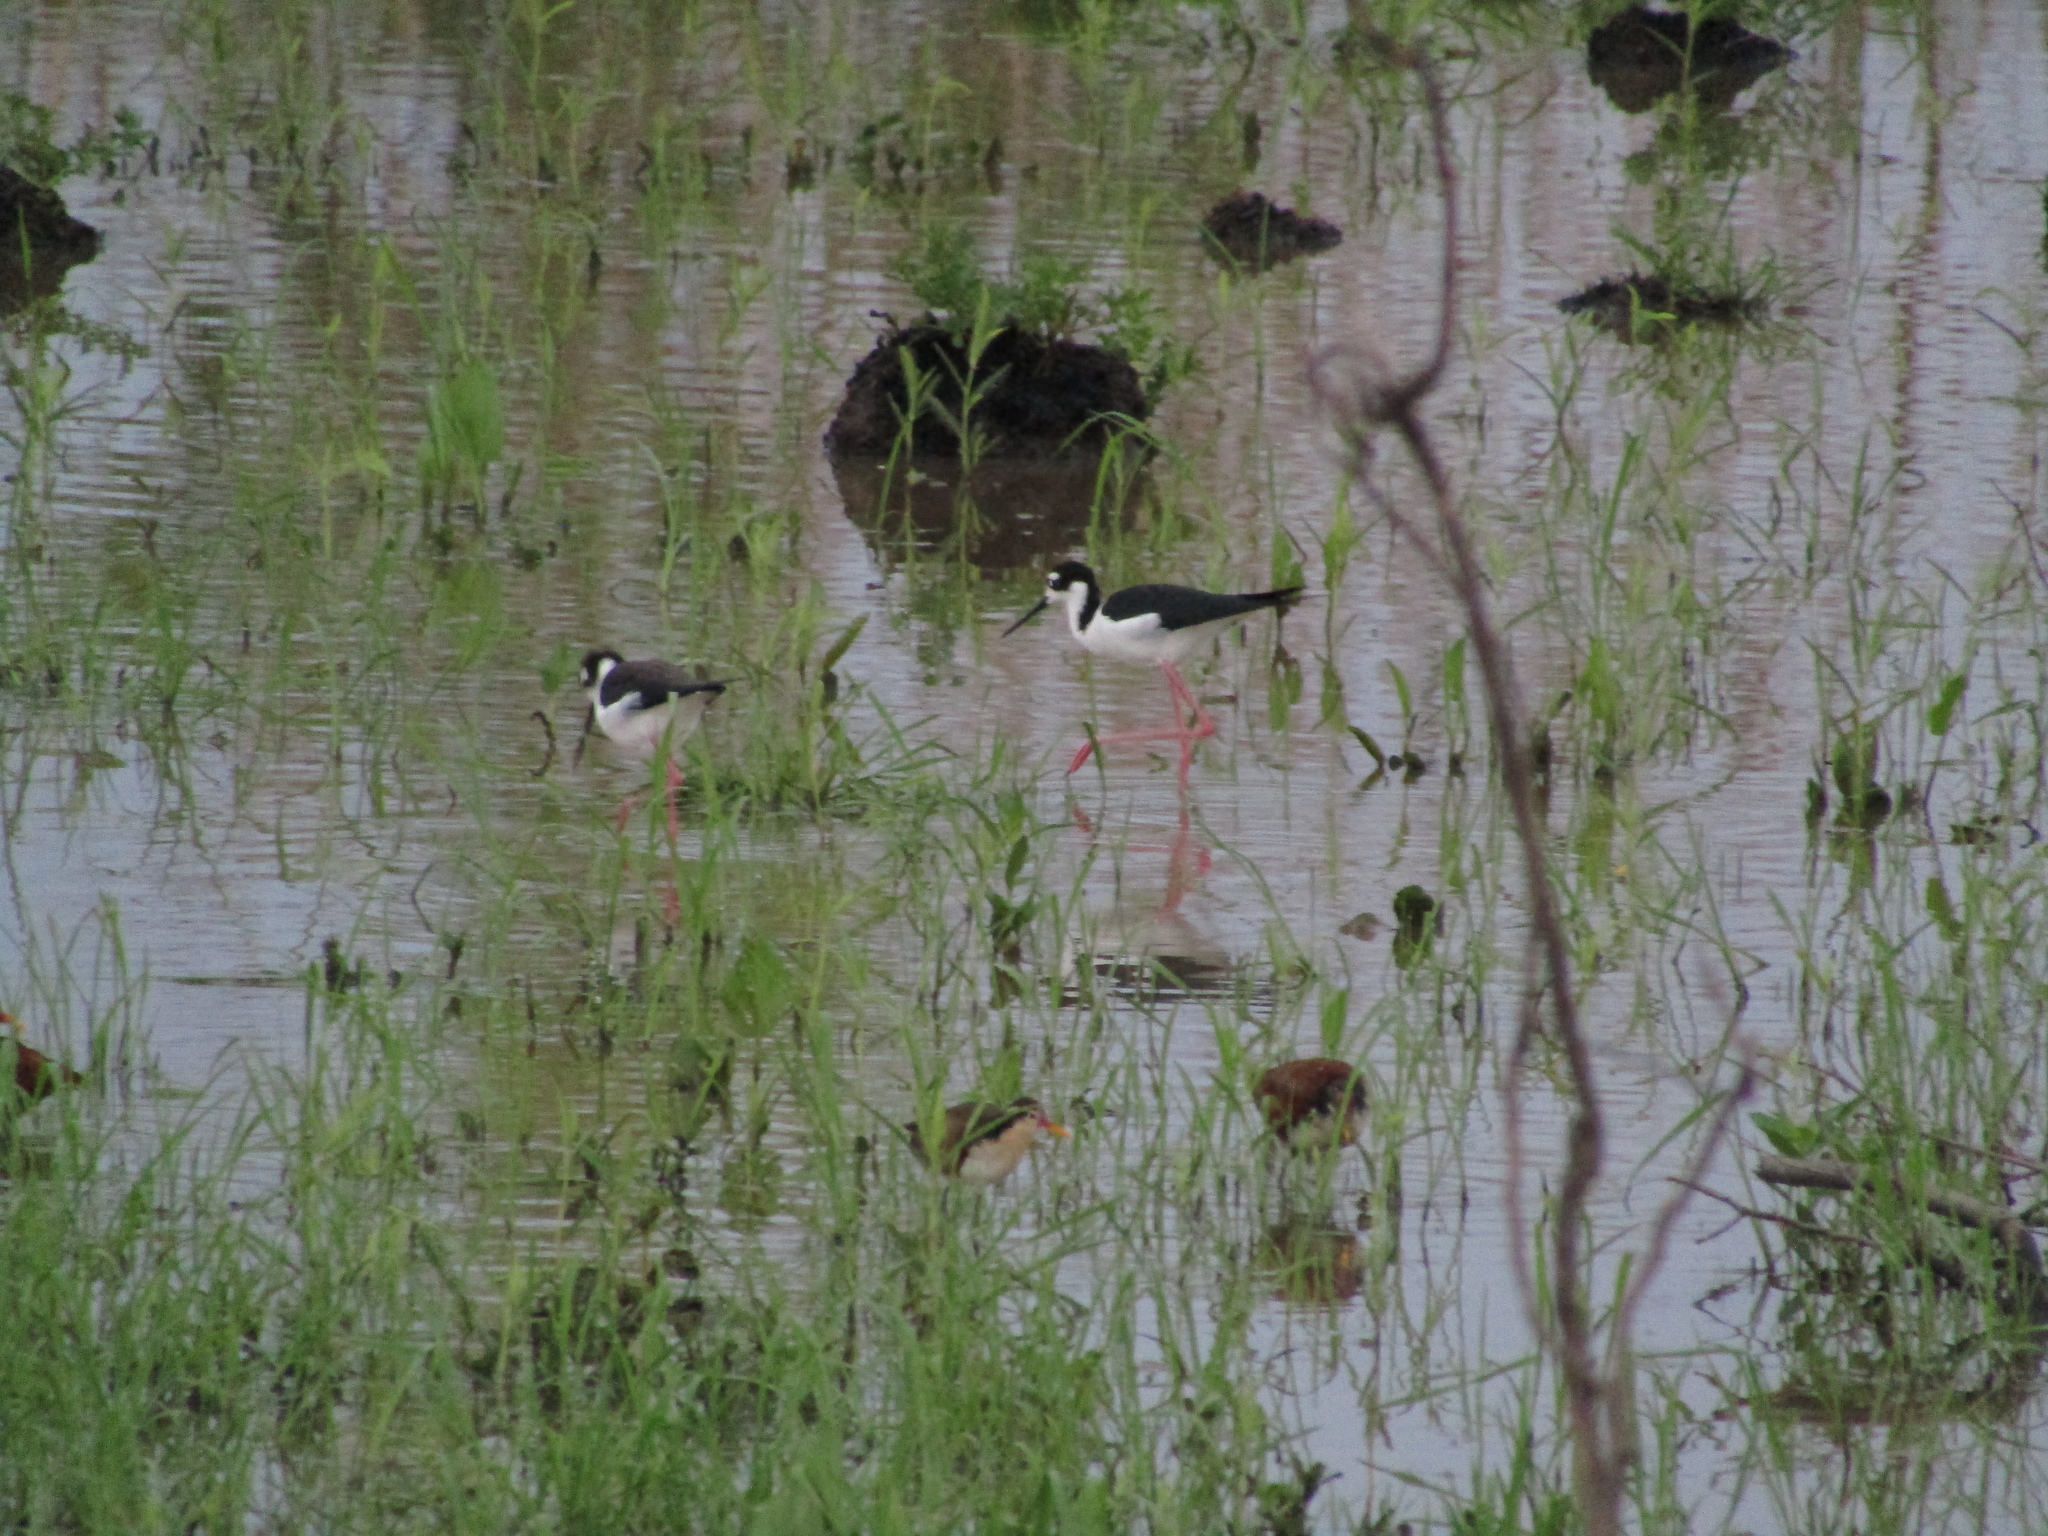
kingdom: Animalia
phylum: Chordata
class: Aves
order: Charadriiformes
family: Recurvirostridae
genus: Himantopus
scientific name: Himantopus mexicanus
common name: Black-necked stilt
